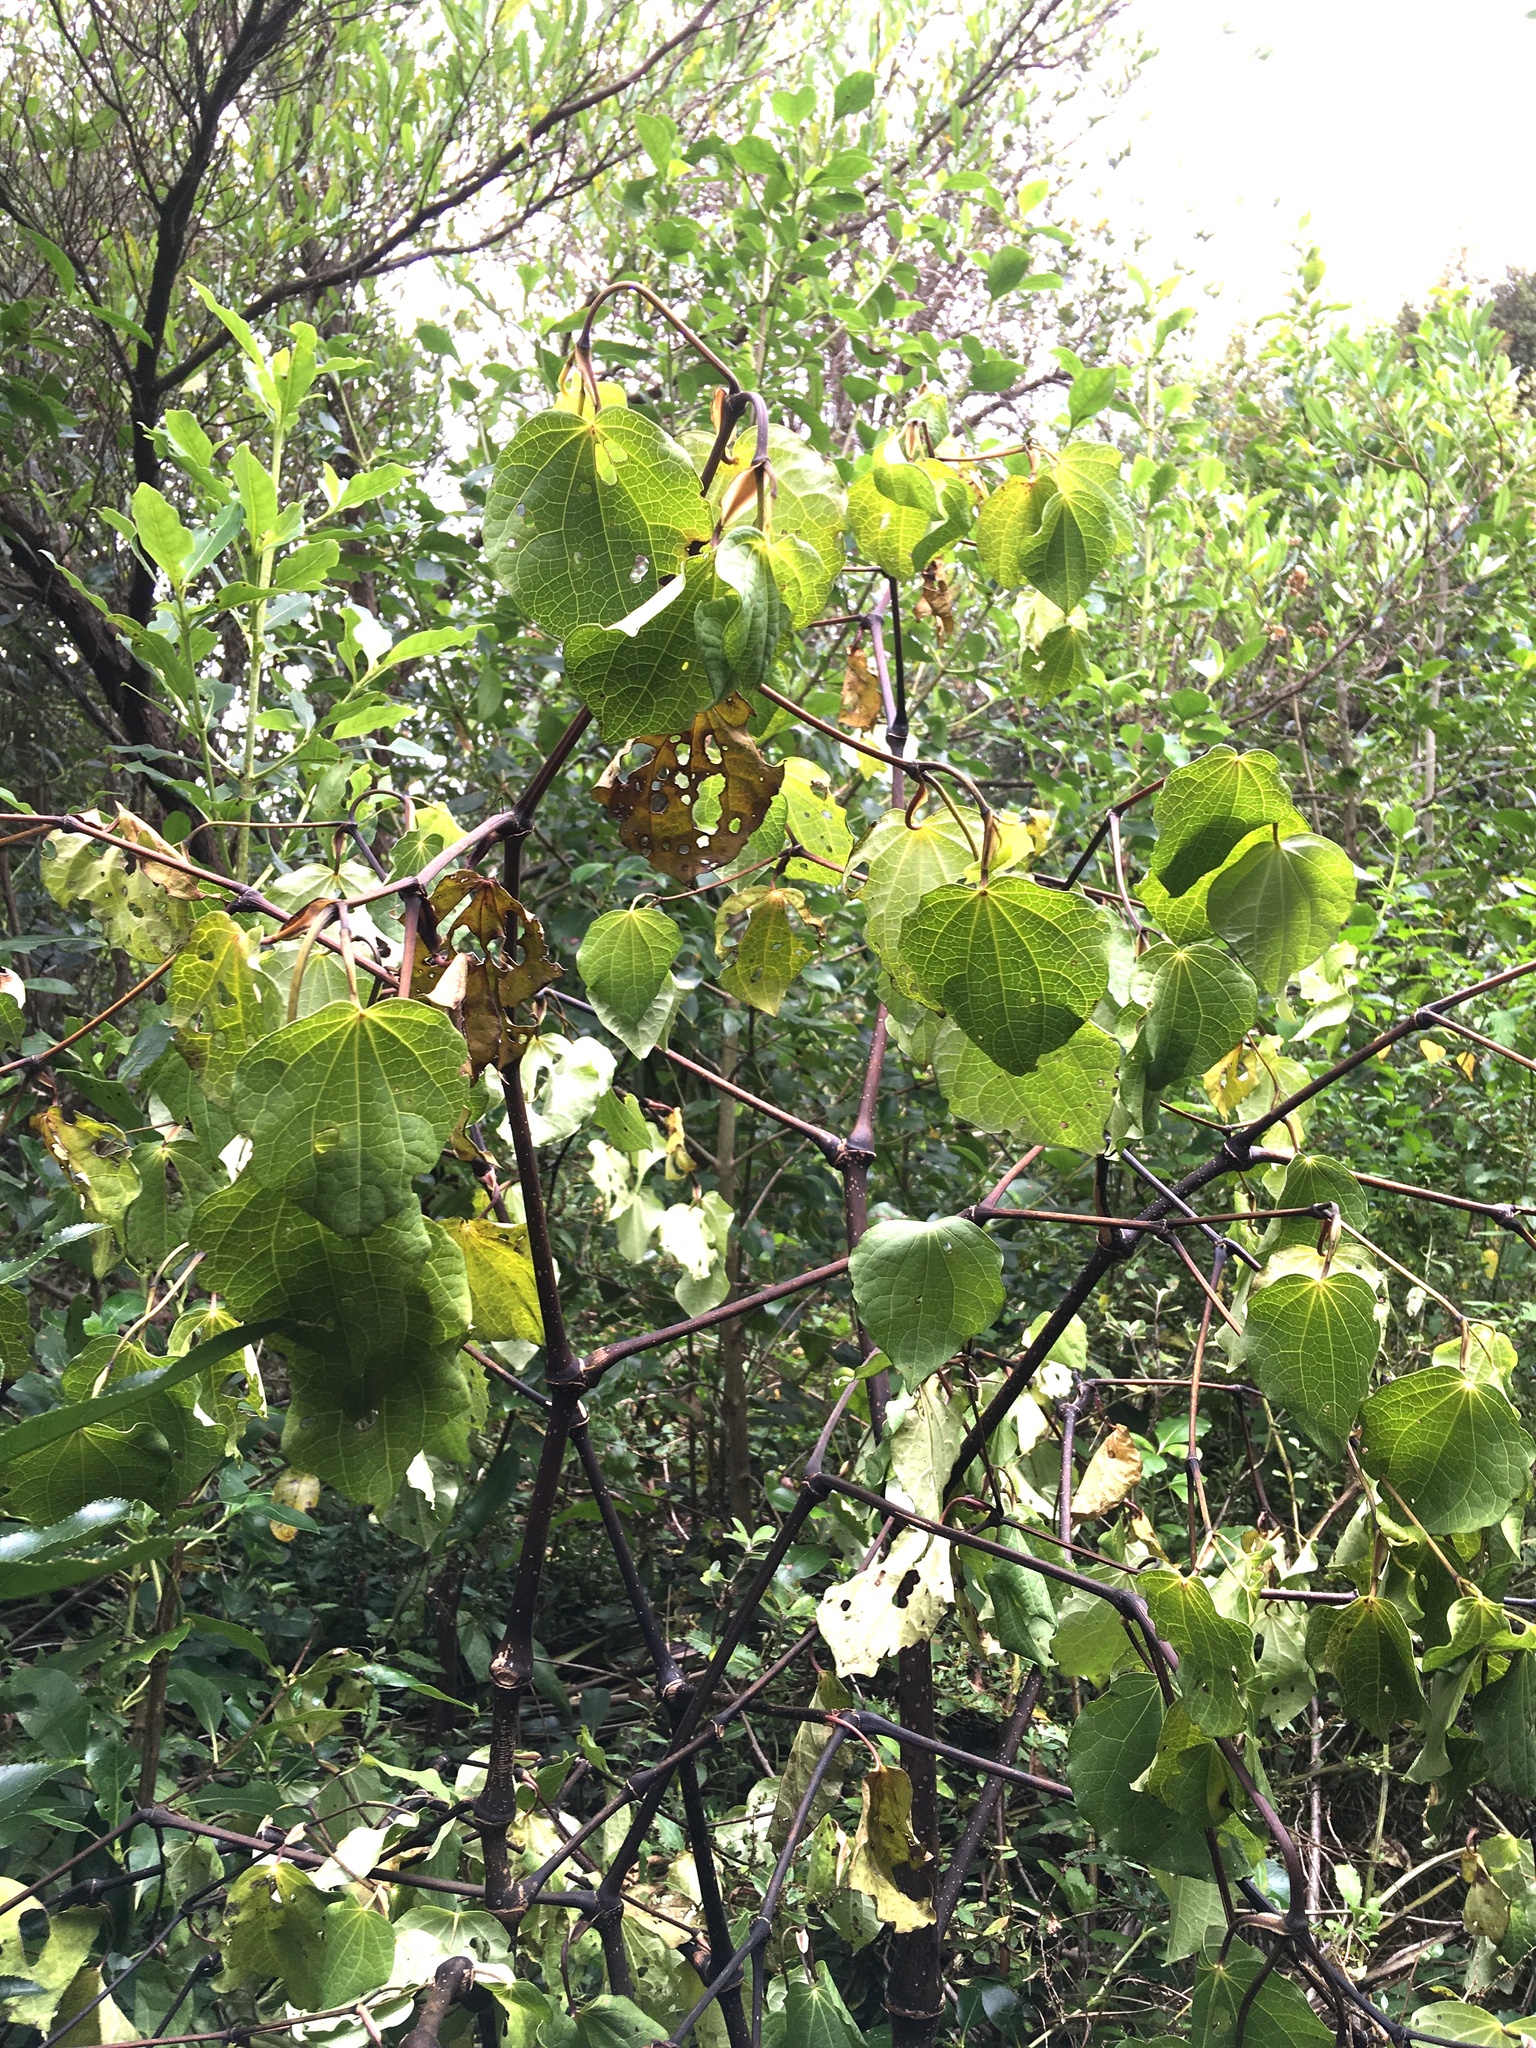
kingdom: Plantae
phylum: Tracheophyta
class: Magnoliopsida
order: Piperales
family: Piperaceae
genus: Macropiper
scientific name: Macropiper excelsum
